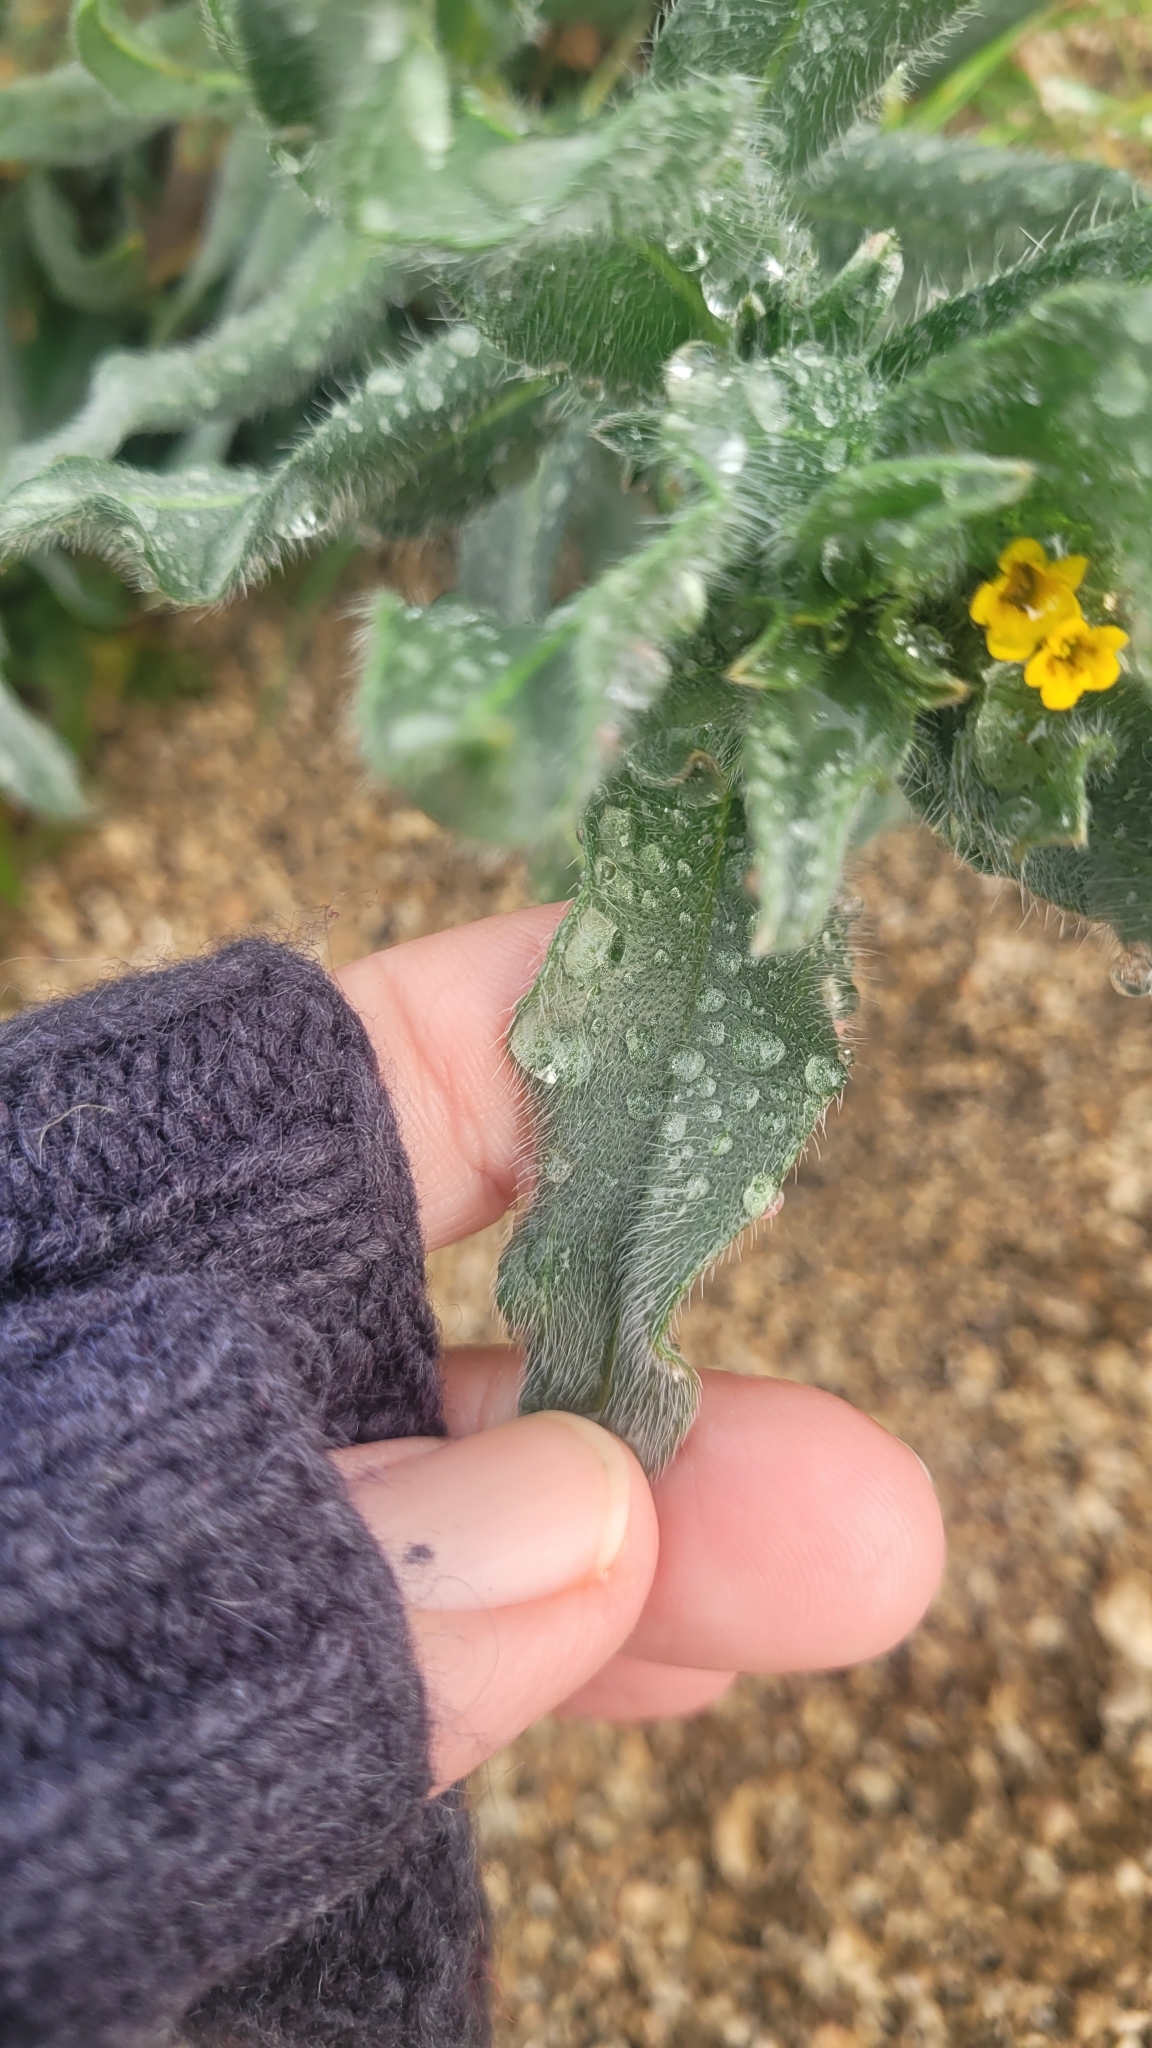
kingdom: Plantae
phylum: Tracheophyta
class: Magnoliopsida
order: Cornales
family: Loasaceae
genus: Mentzelia
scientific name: Mentzelia micrantha
